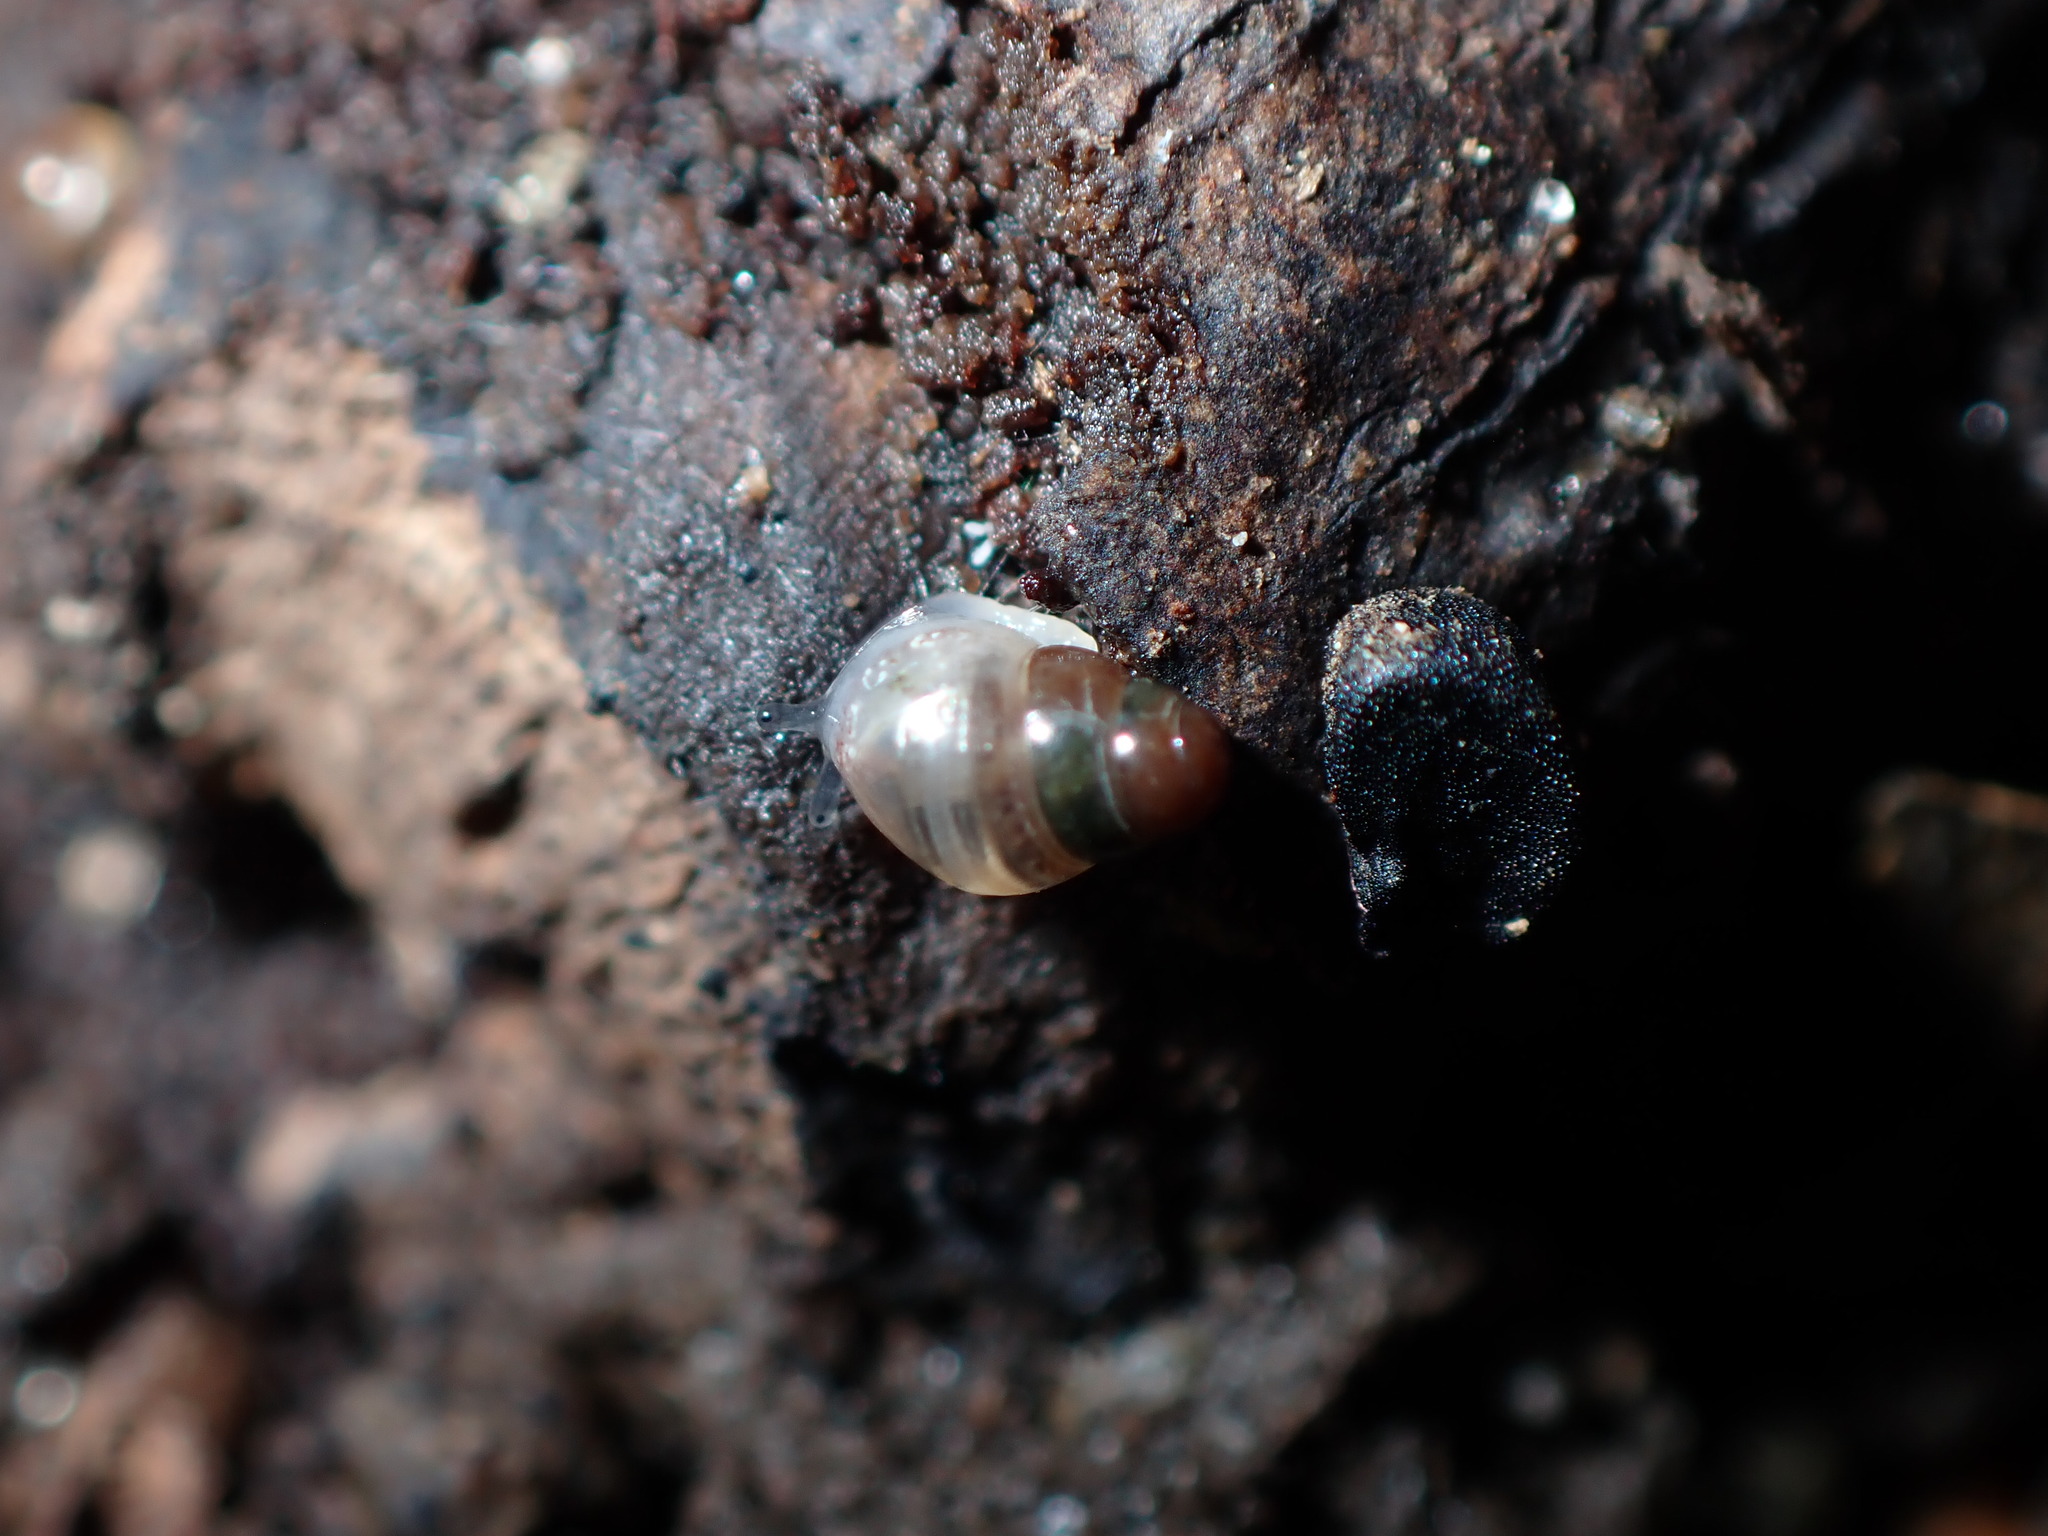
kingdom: Animalia
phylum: Mollusca
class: Gastropoda
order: Stylommatophora
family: Cochlicopidae
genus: Cochlicopa
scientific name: Cochlicopa lubrica
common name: Glossy pillar snail
